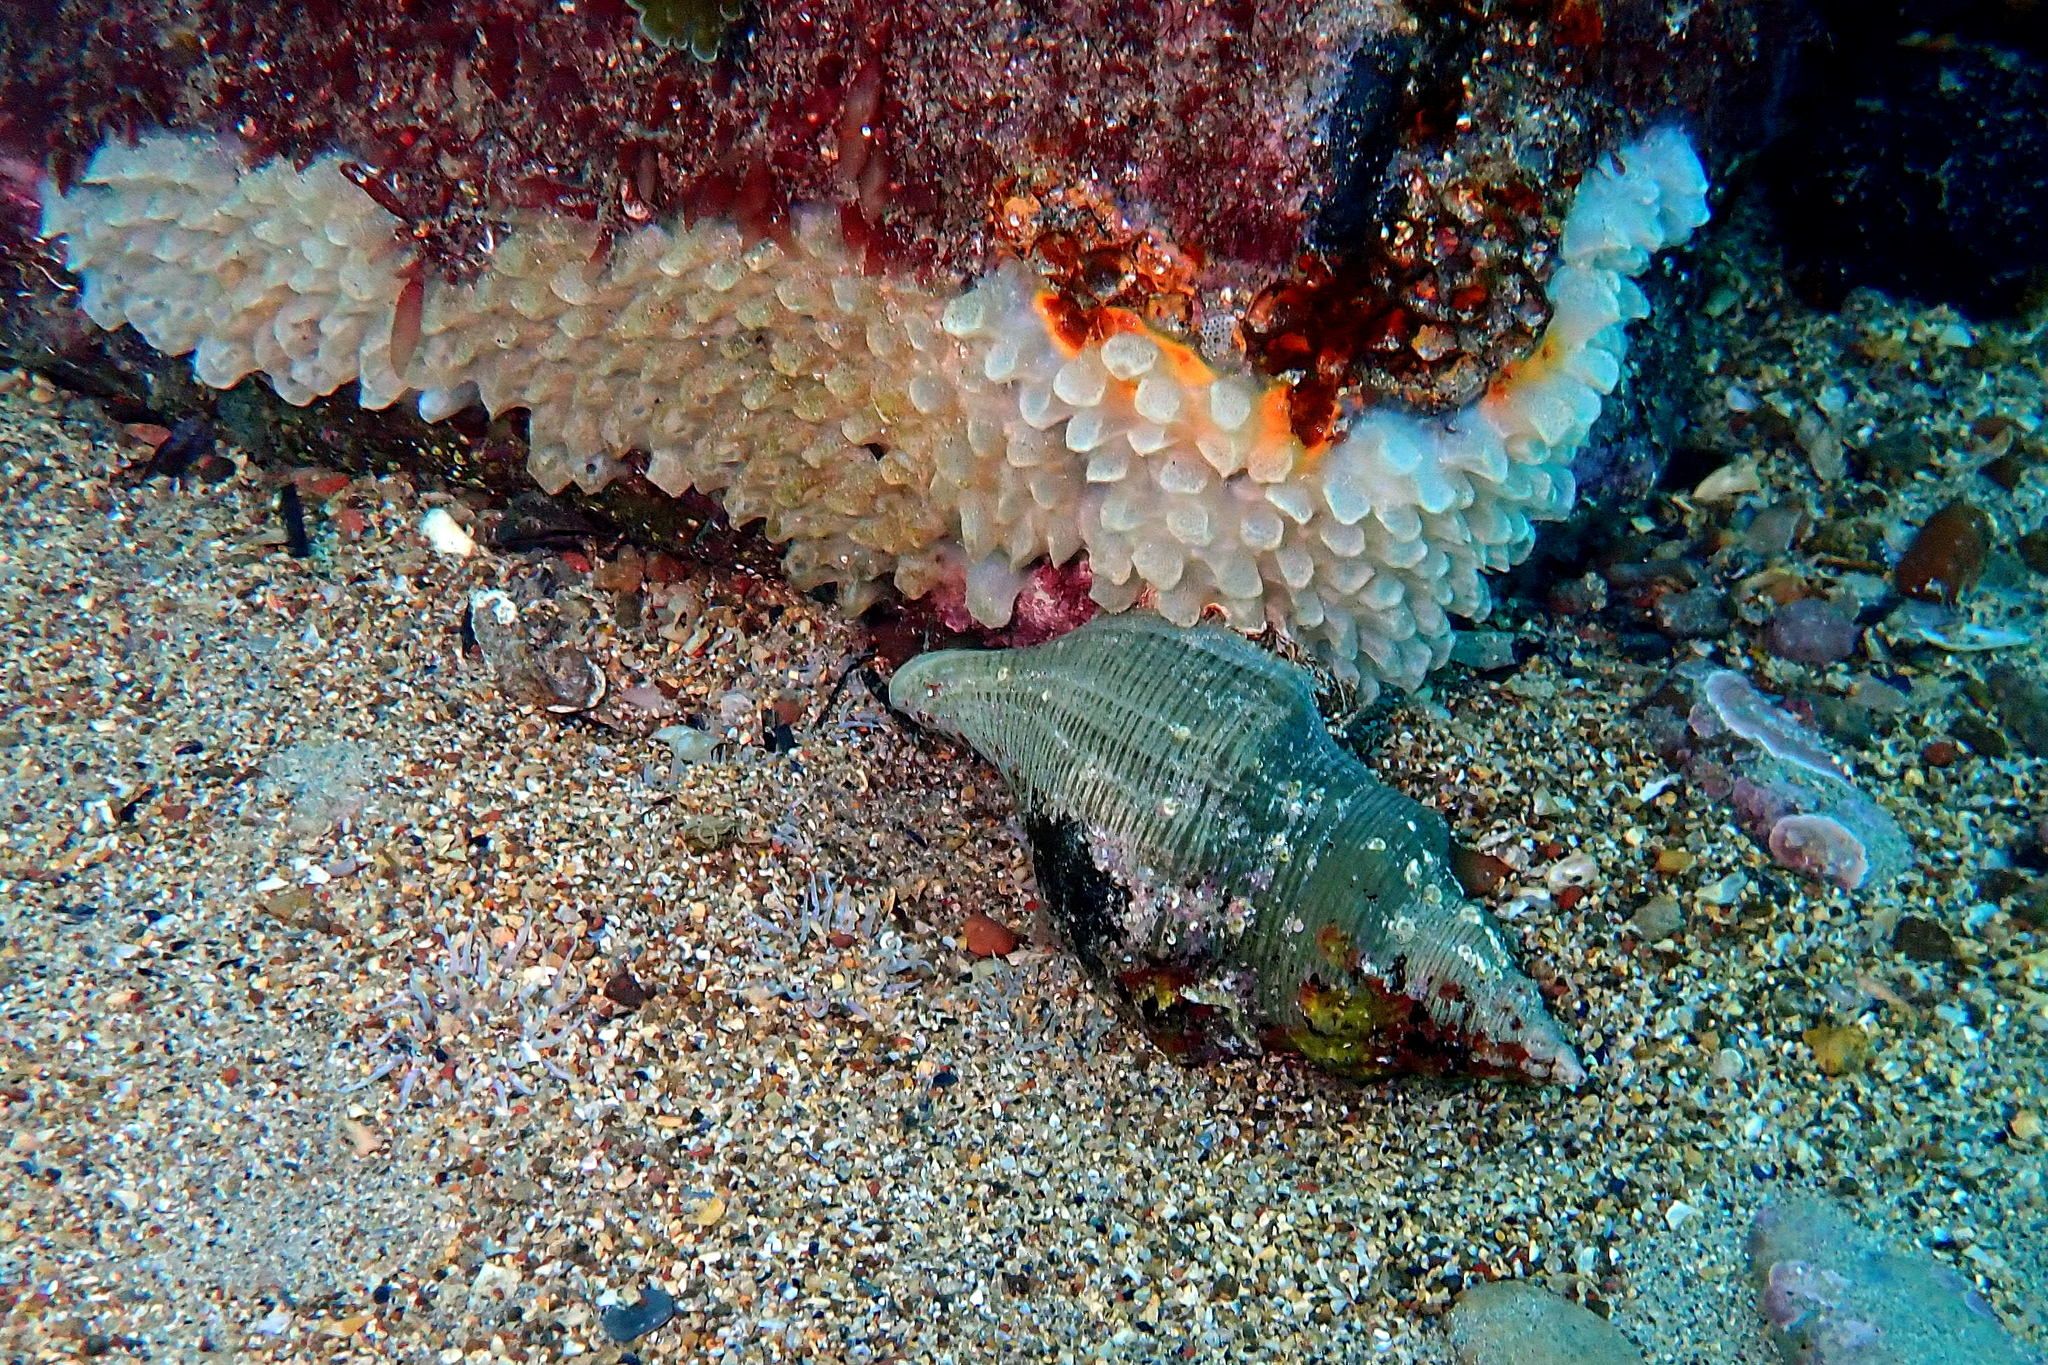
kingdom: Animalia
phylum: Mollusca
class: Gastropoda
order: Neogastropoda
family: Austrosiphonidae
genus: Penion
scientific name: Penion mandarinus
